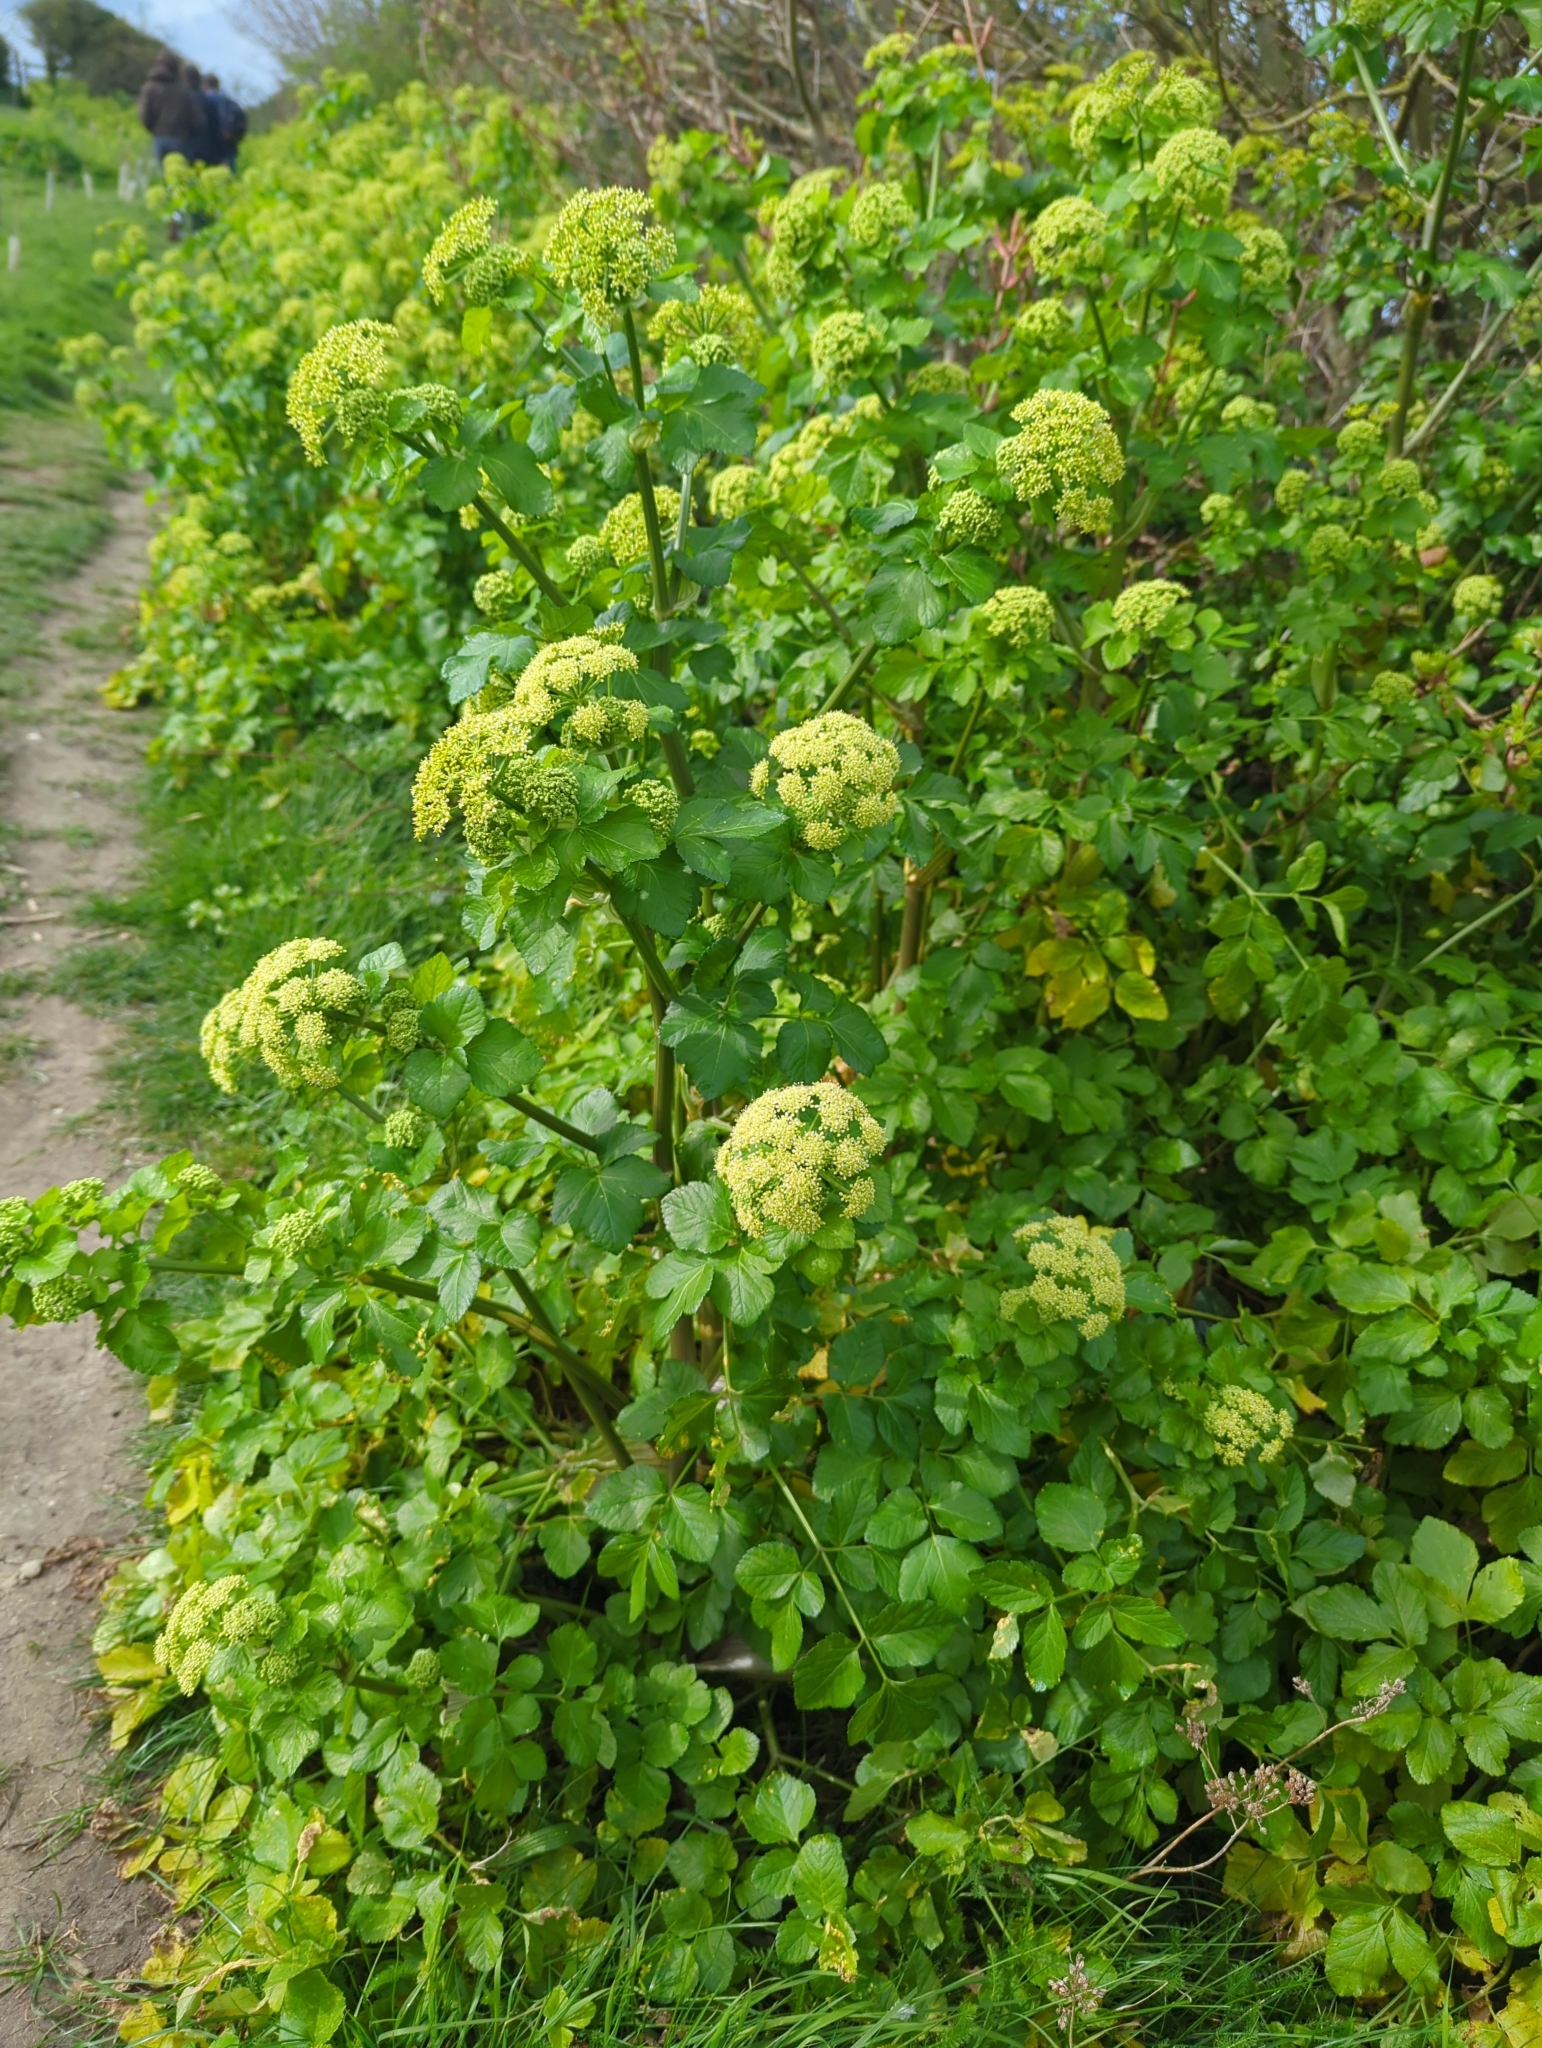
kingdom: Plantae
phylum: Tracheophyta
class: Magnoliopsida
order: Apiales
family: Apiaceae
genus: Smyrnium
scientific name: Smyrnium olusatrum
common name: Alexanders
